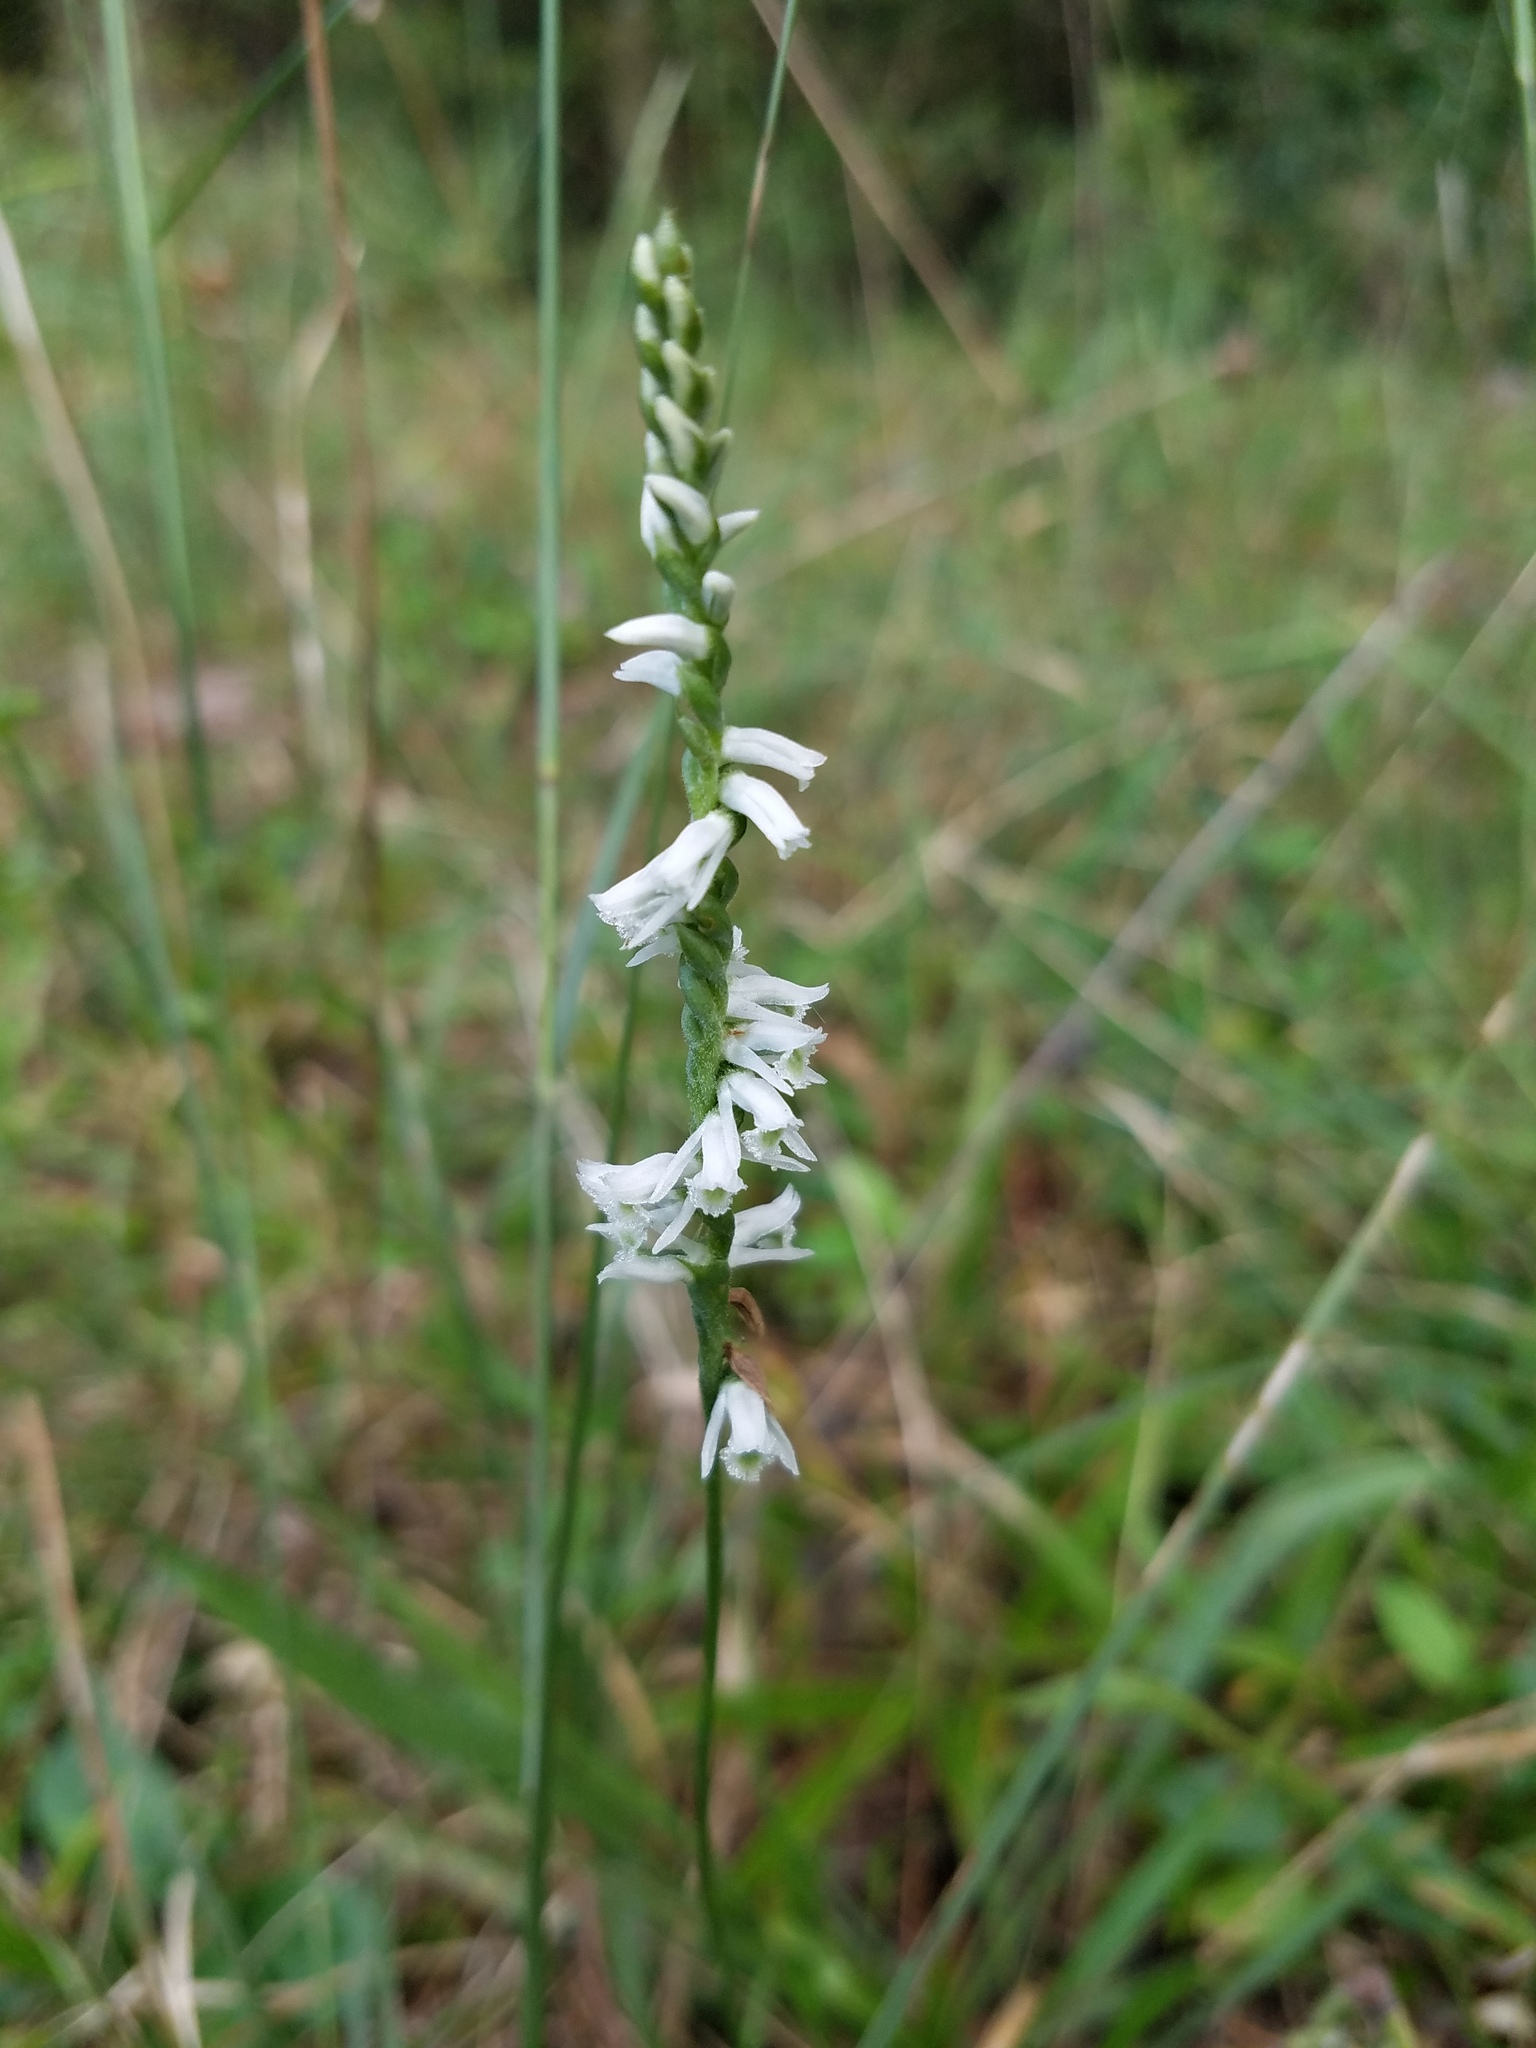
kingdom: Plantae
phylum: Tracheophyta
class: Liliopsida
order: Asparagales
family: Orchidaceae
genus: Spiranthes
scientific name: Spiranthes lacera
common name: Northern slender ladies'-tresses
